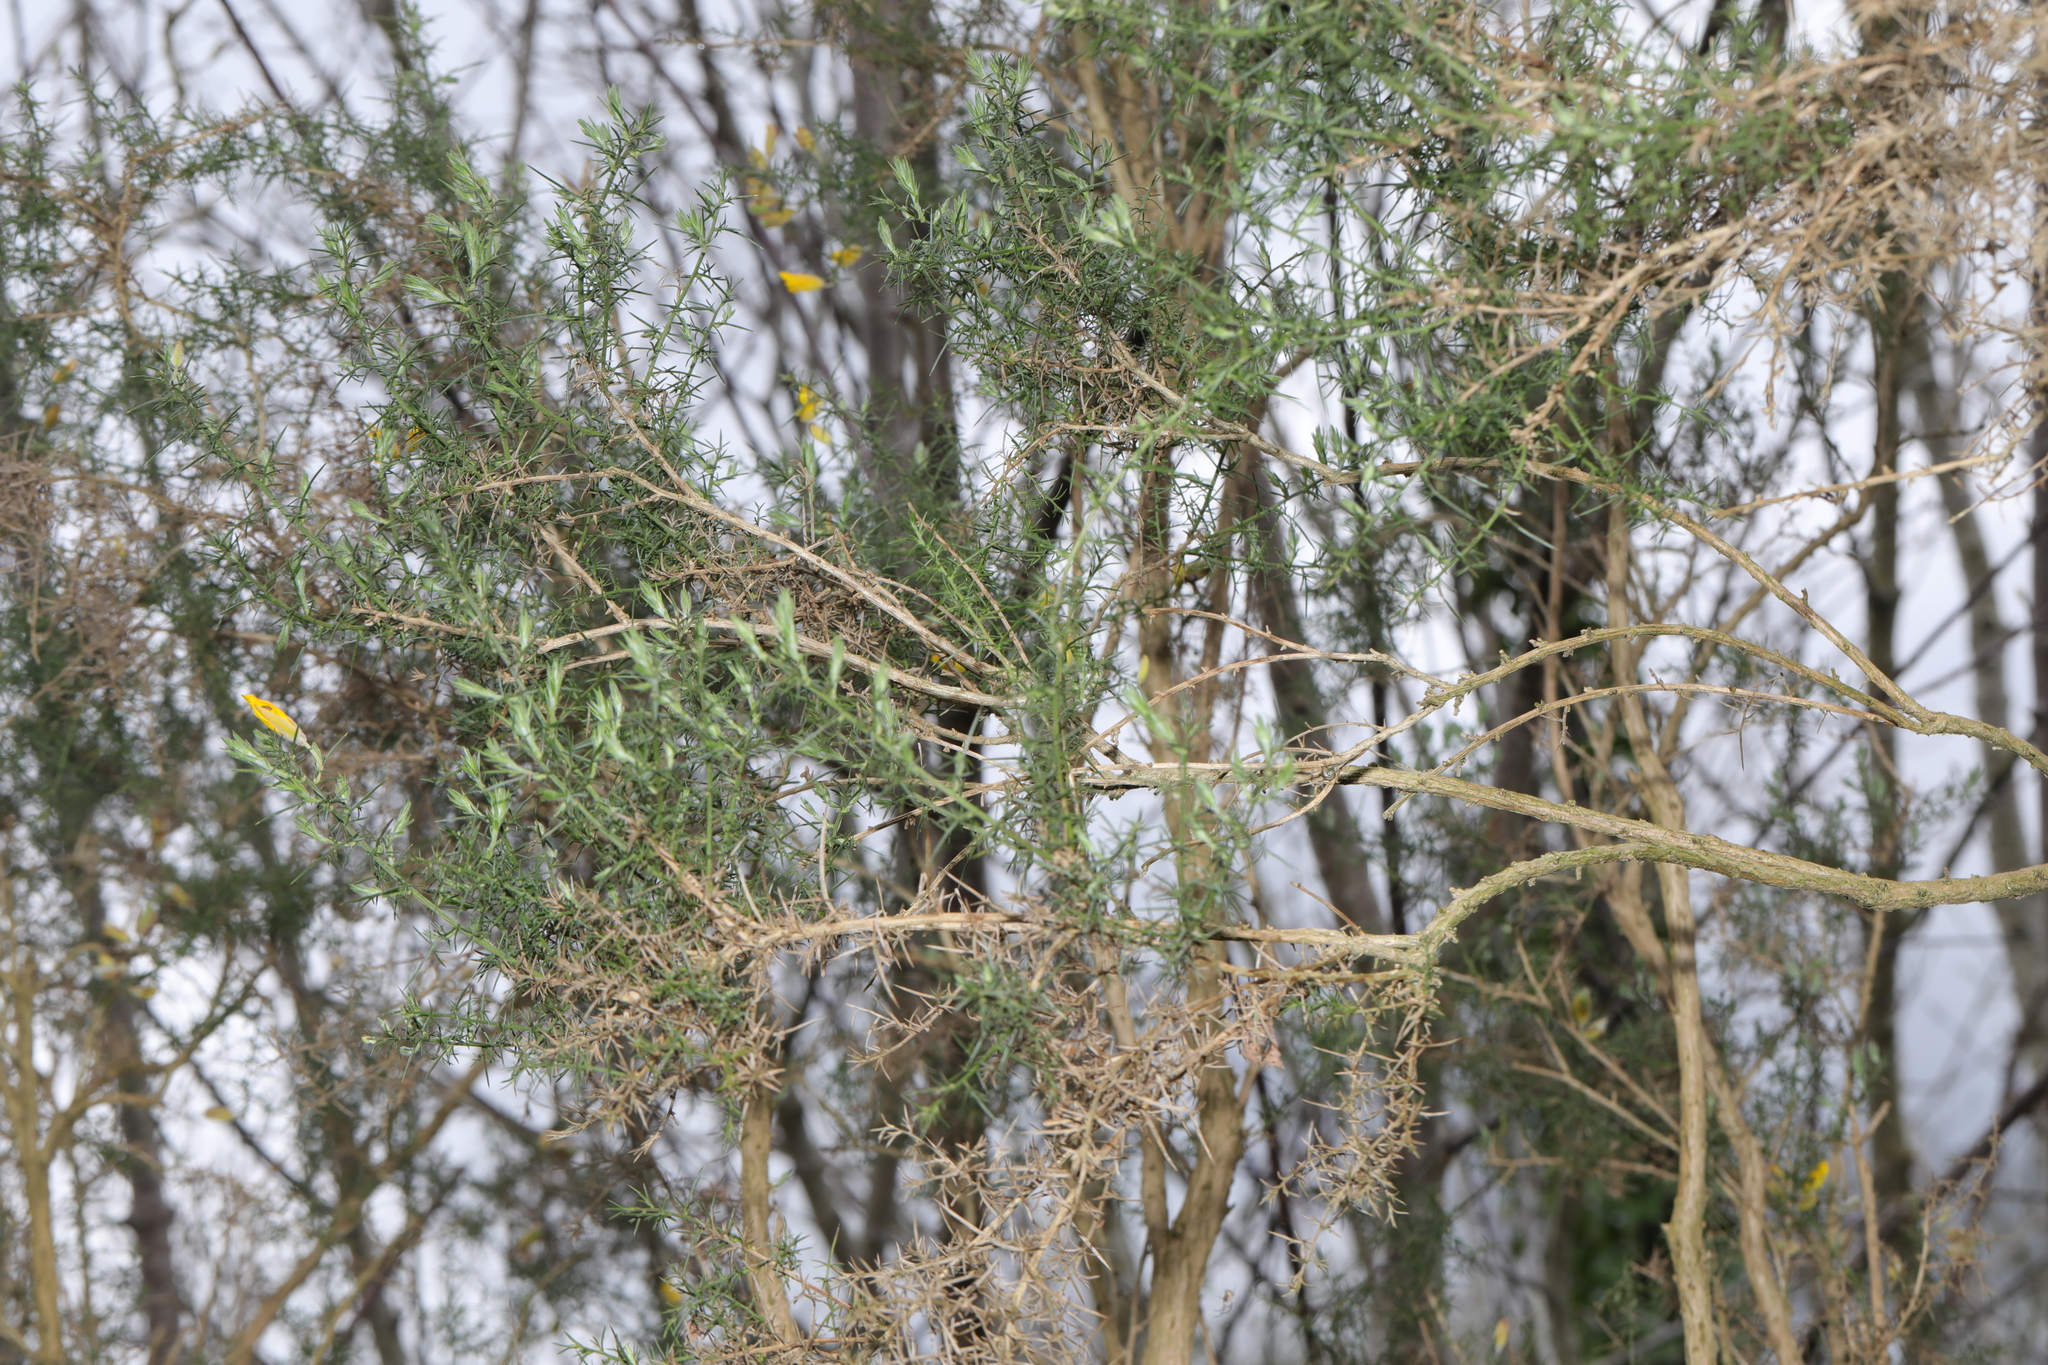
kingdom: Plantae
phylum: Tracheophyta
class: Magnoliopsida
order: Fabales
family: Fabaceae
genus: Ulex
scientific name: Ulex europaeus
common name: Common gorse
